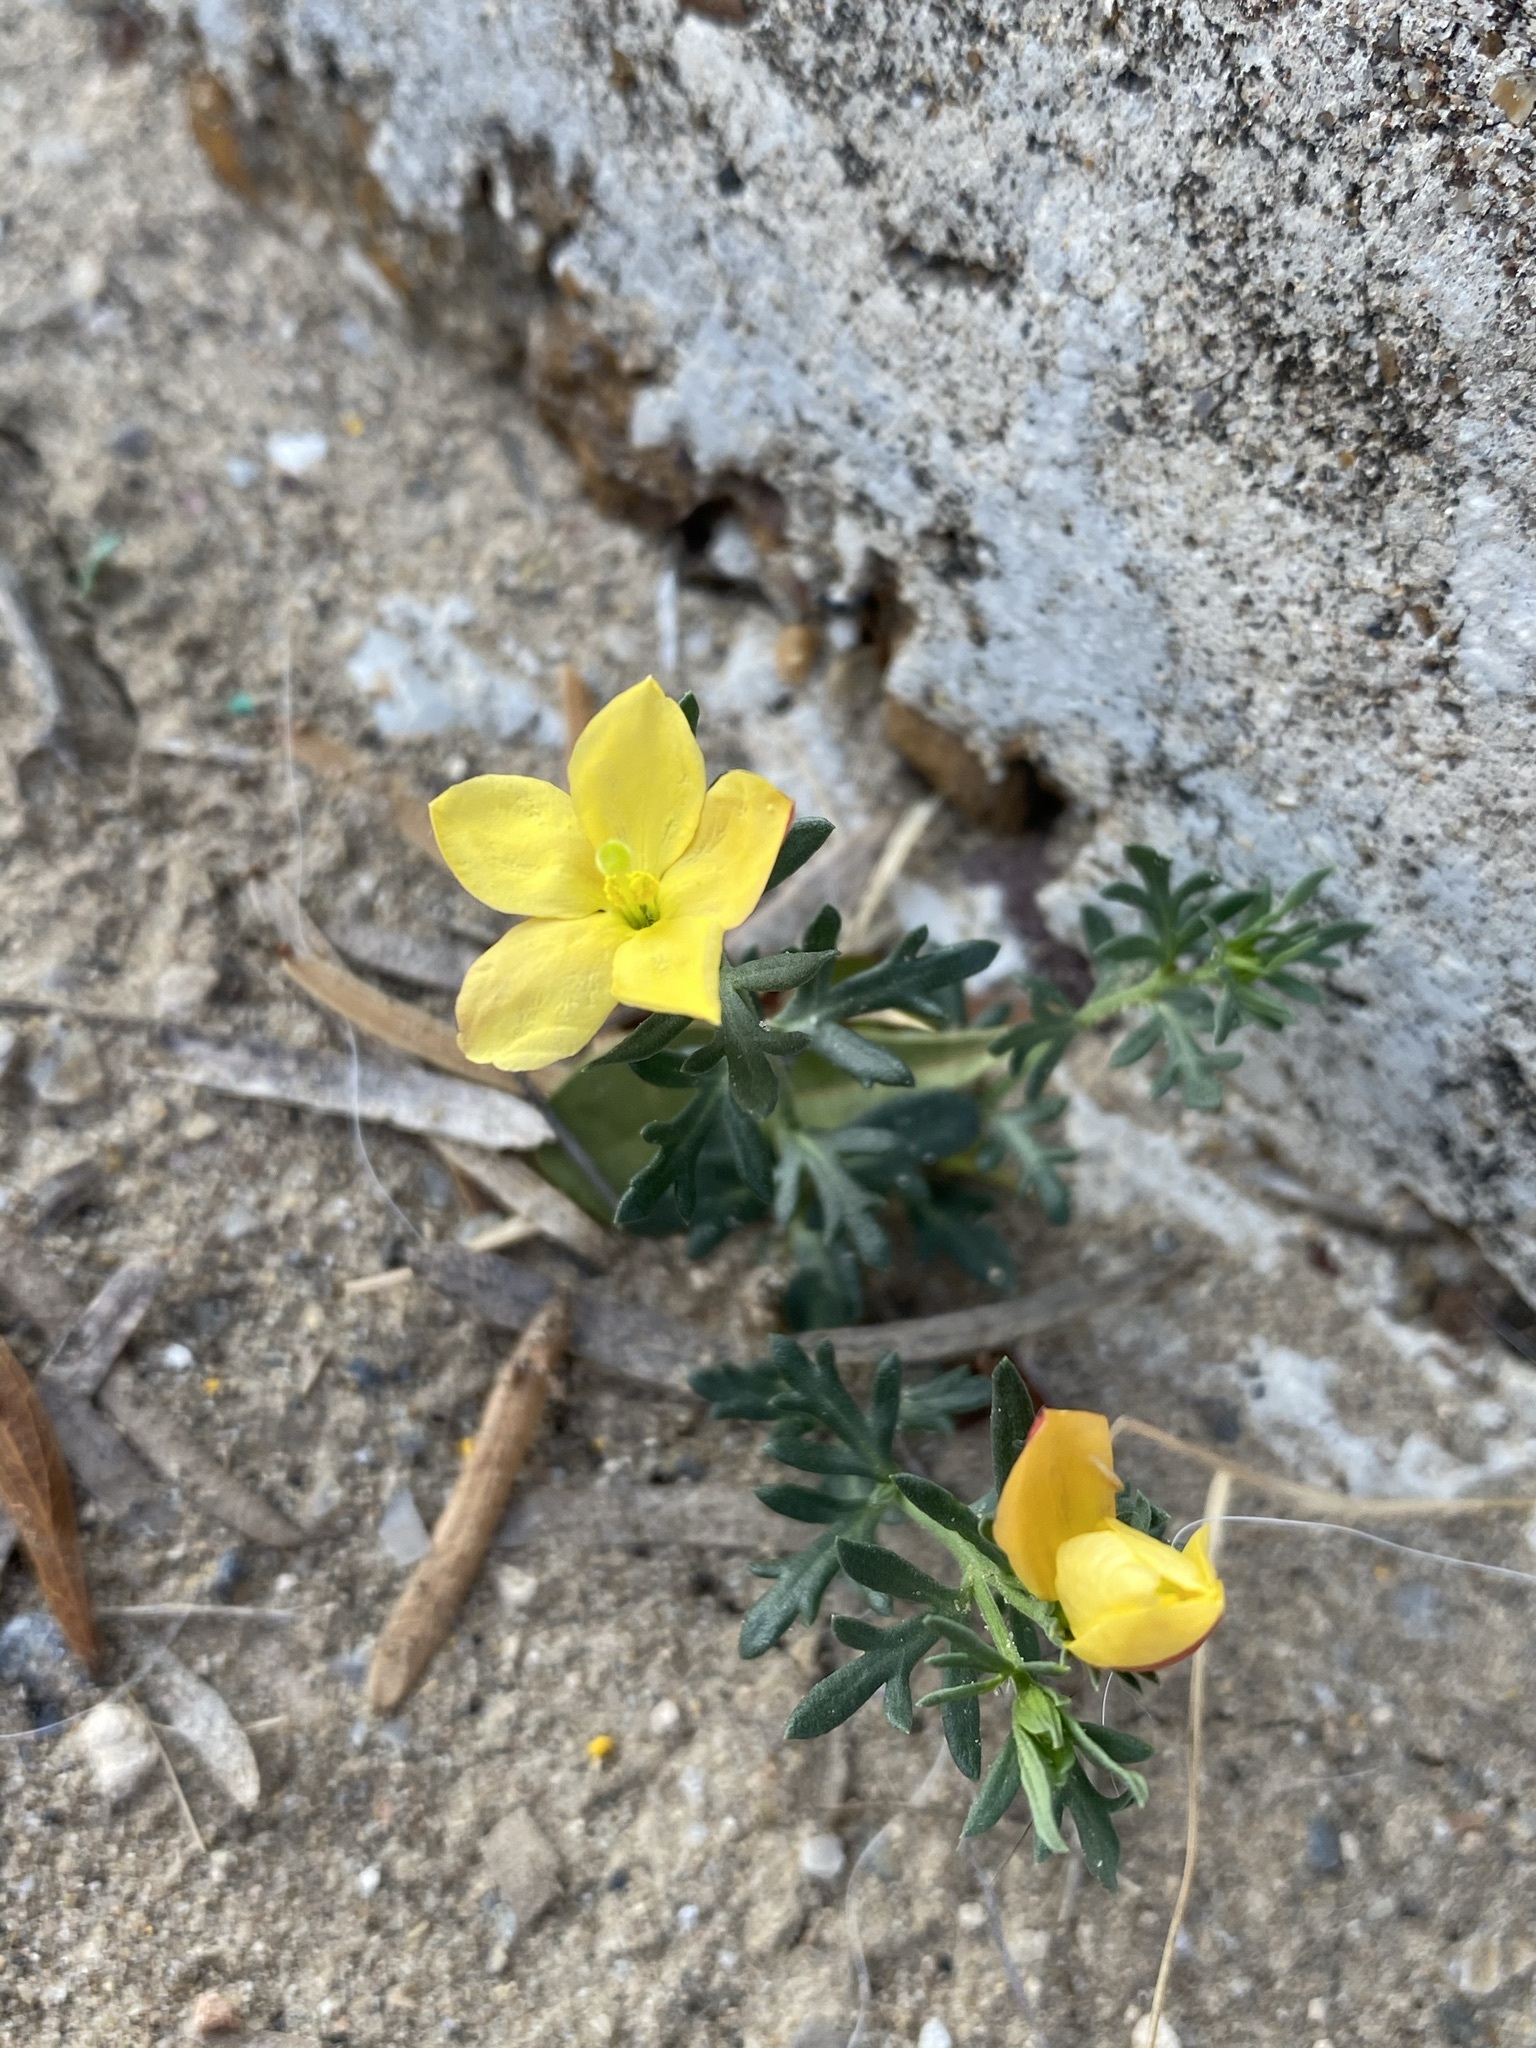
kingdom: Plantae
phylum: Tracheophyta
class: Magnoliopsida
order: Lamiales
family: Oleaceae
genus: Menodora
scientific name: Menodora heterophylla
